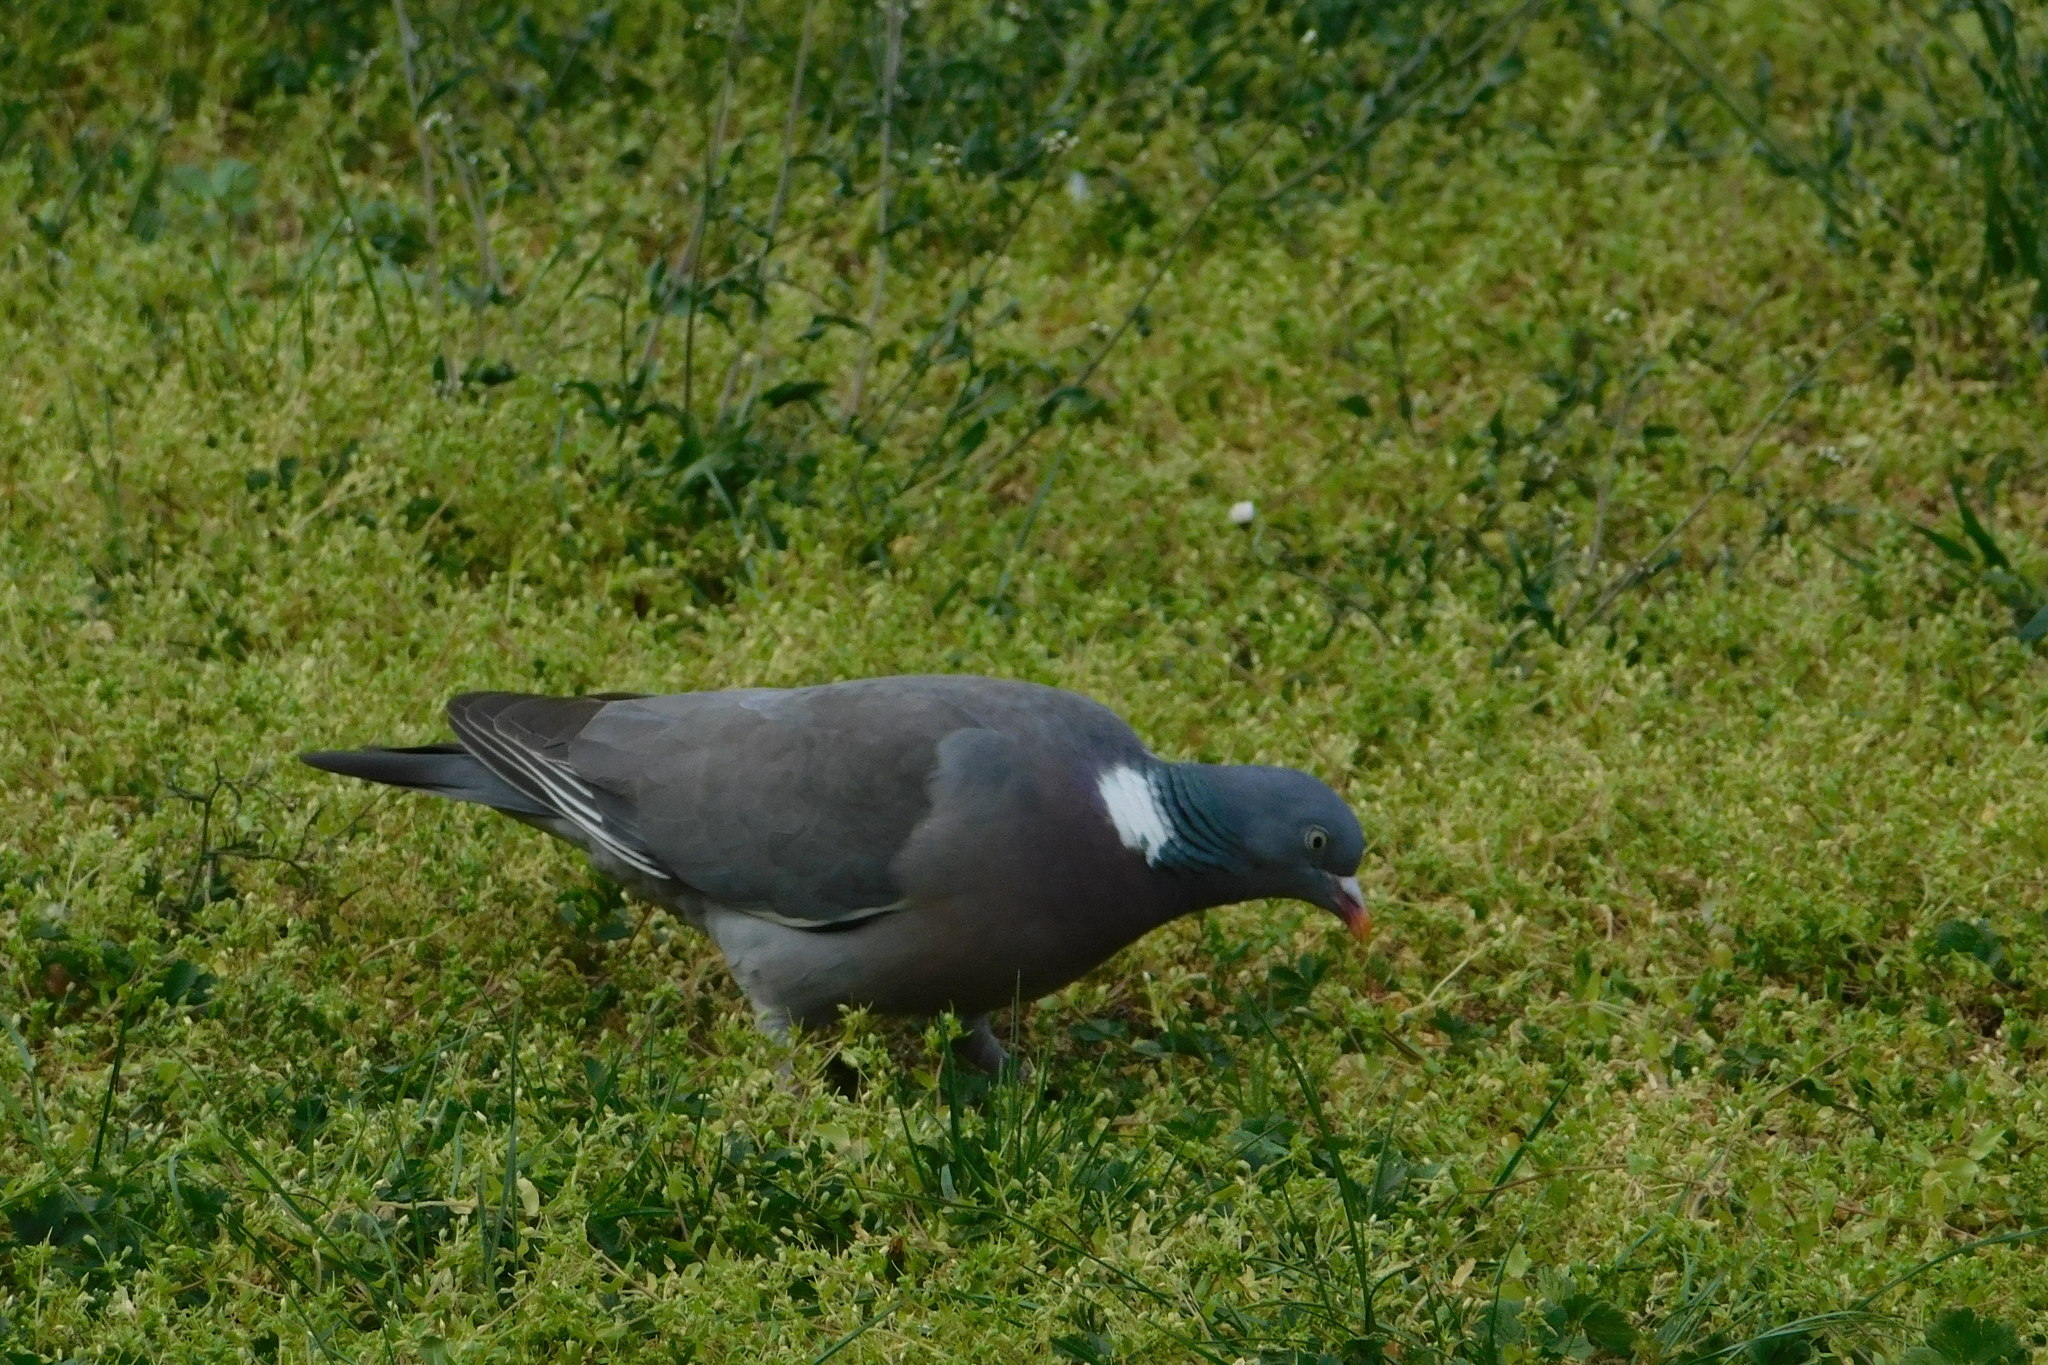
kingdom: Animalia
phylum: Chordata
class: Aves
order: Columbiformes
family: Columbidae
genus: Columba
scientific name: Columba palumbus
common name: Common wood pigeon
